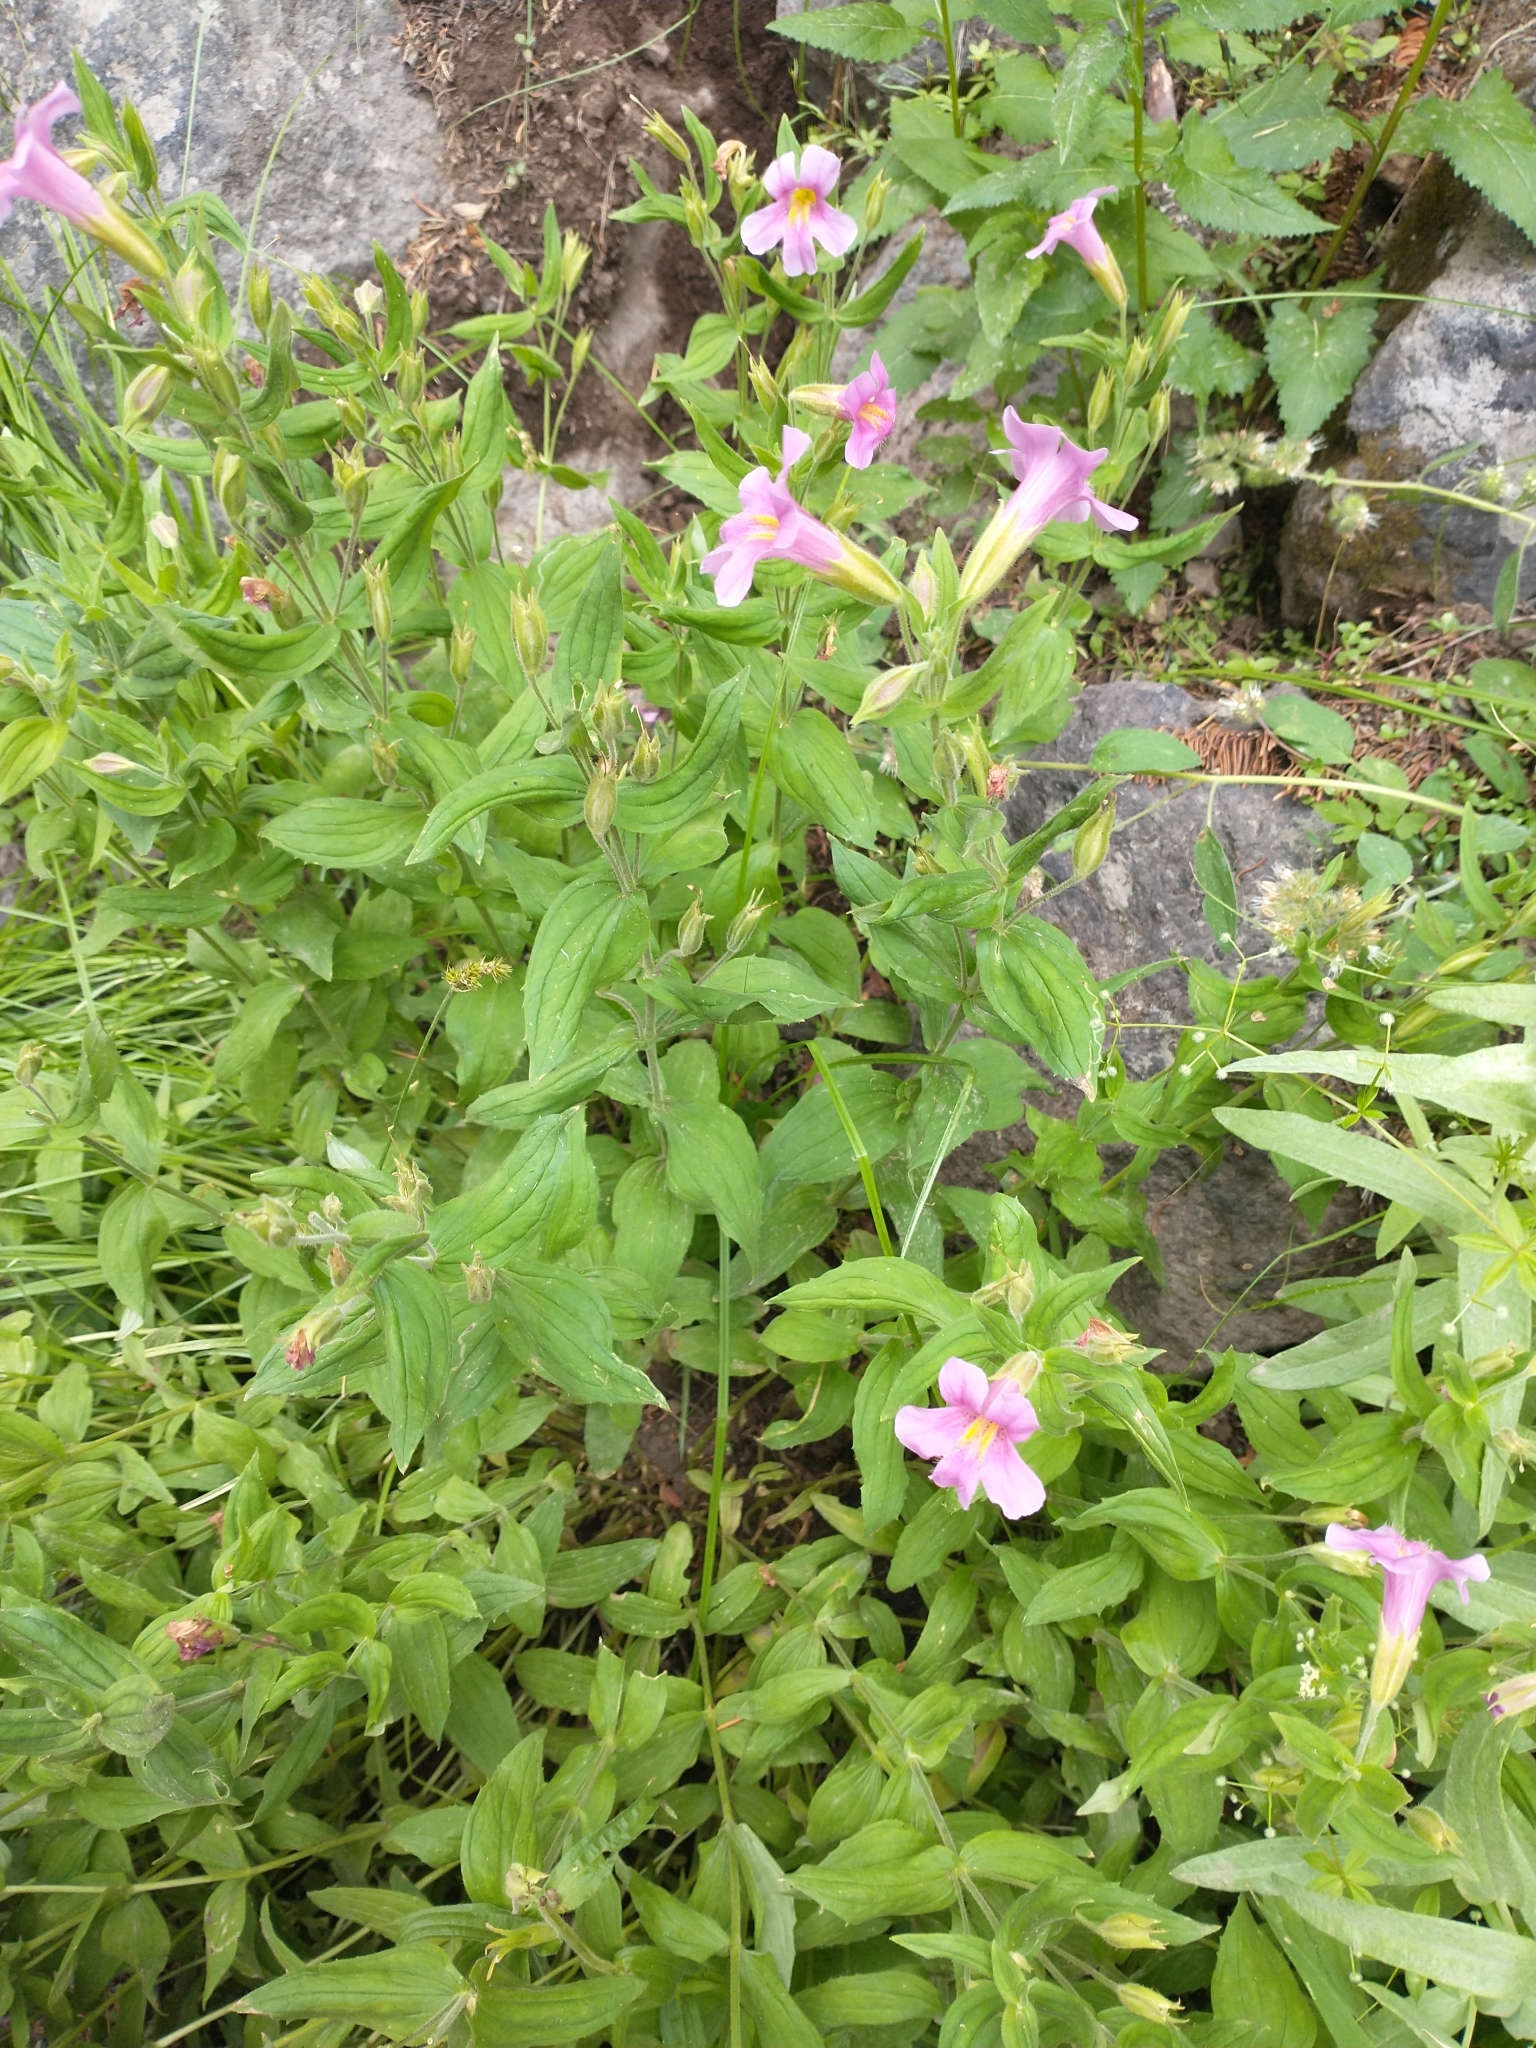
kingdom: Plantae
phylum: Tracheophyta
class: Magnoliopsida
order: Lamiales
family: Phrymaceae
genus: Erythranthe
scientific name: Erythranthe lewisii
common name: Lewis's monkey-flower
